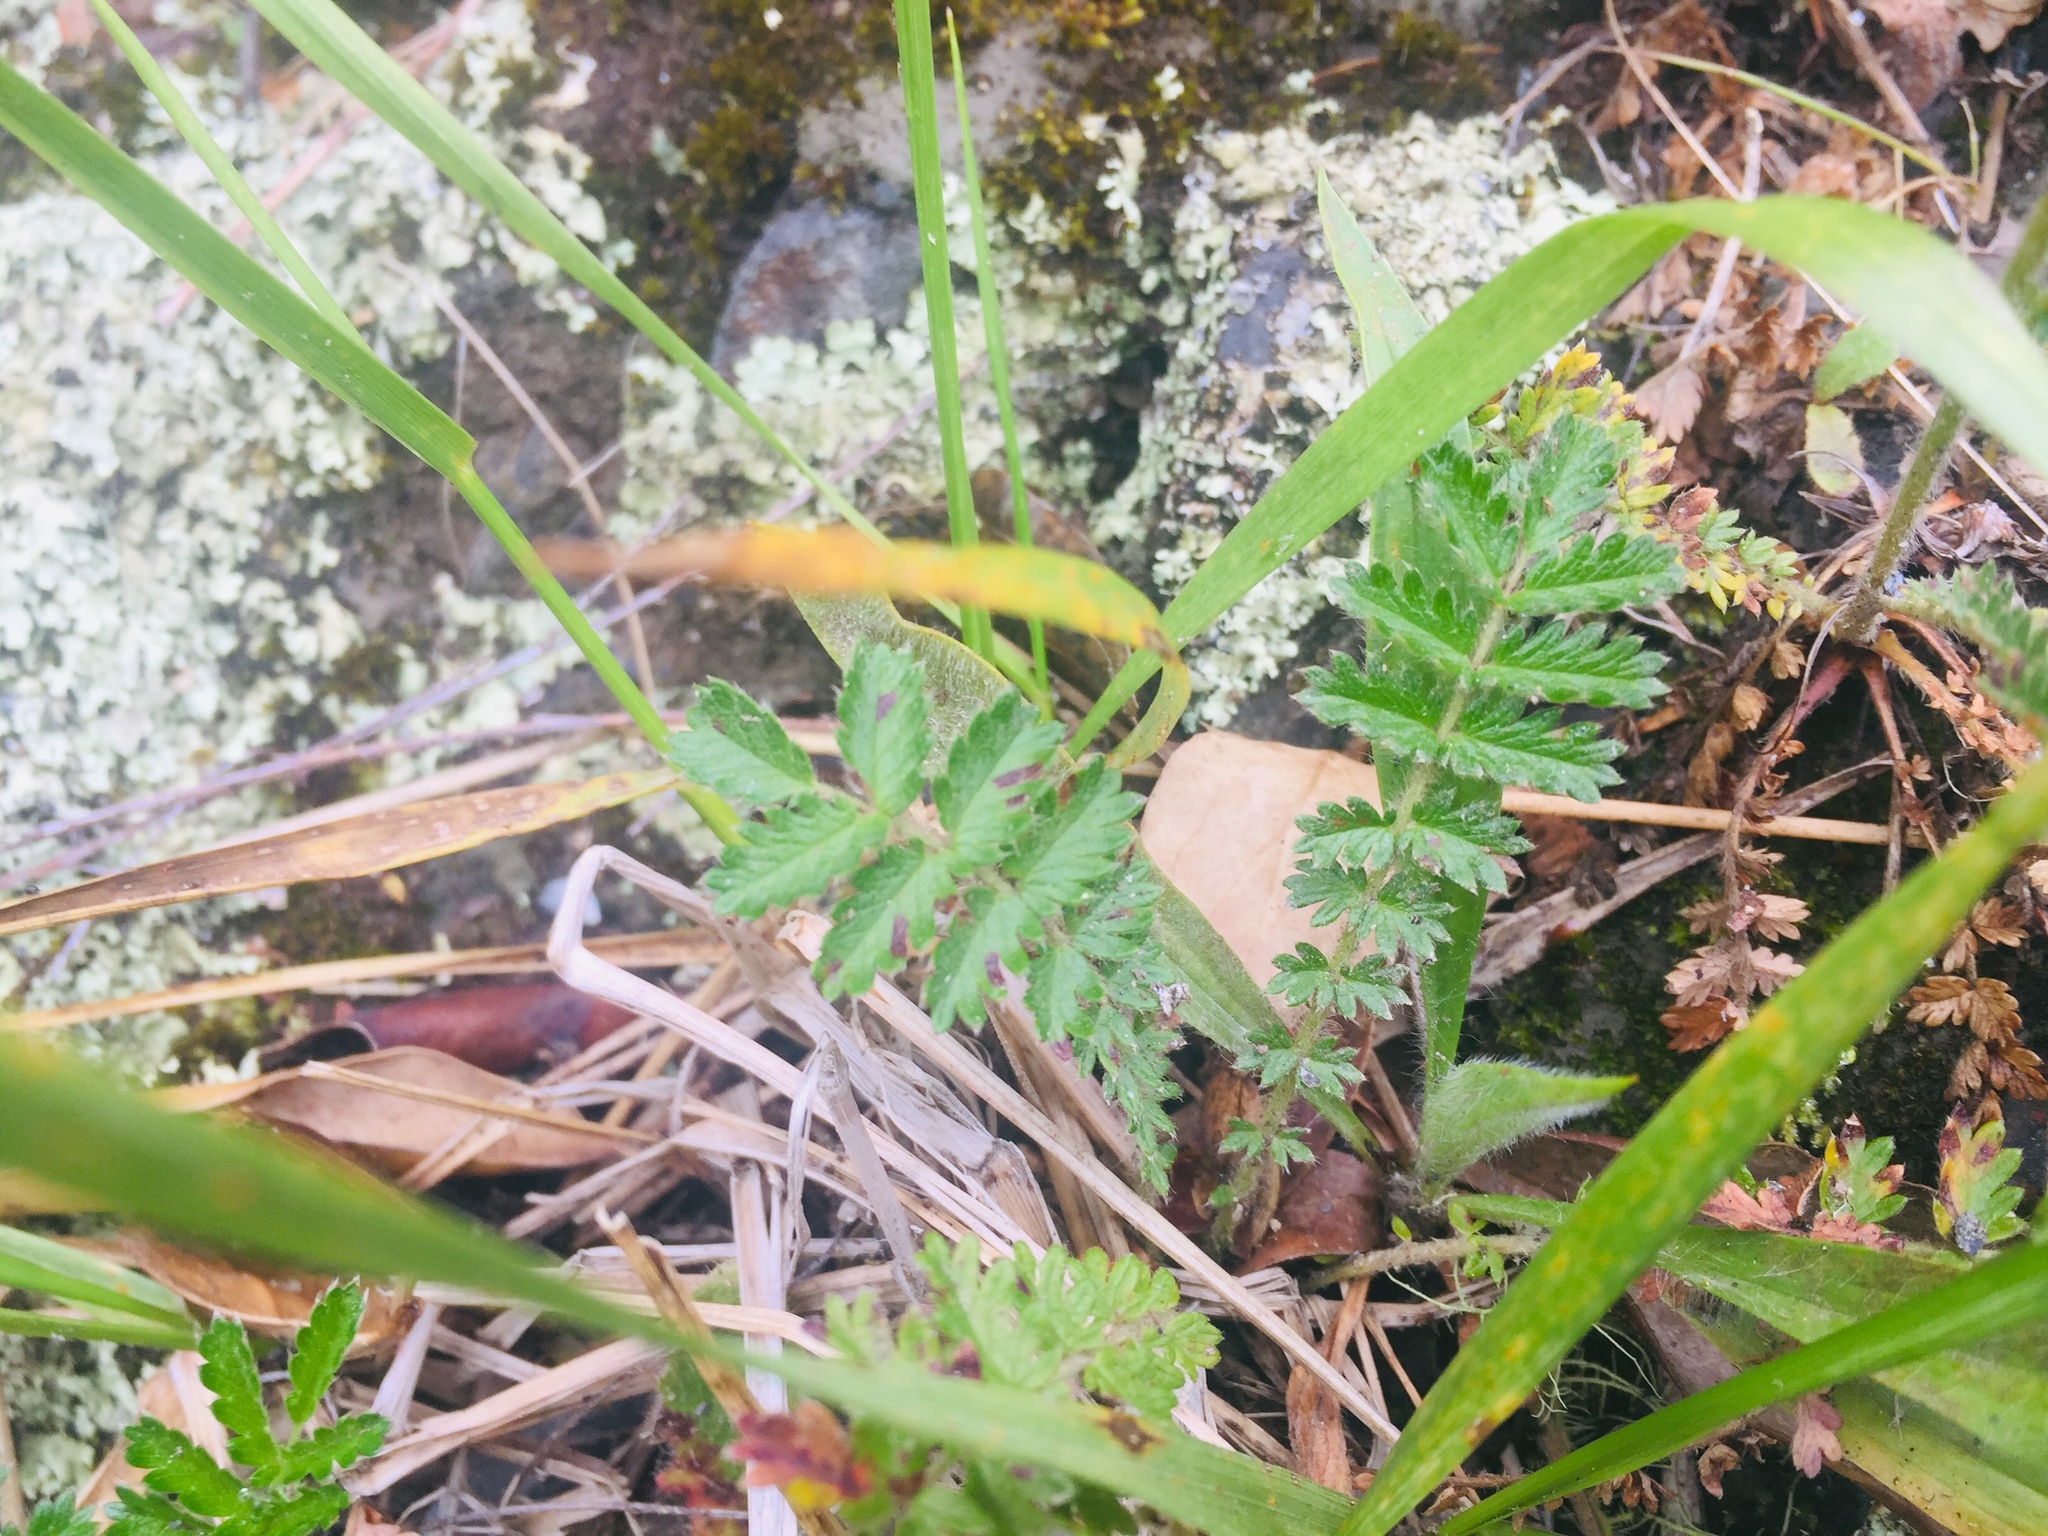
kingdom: Plantae
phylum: Tracheophyta
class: Magnoliopsida
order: Rosales
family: Rosaceae
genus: Acaena
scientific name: Acaena novae-zelandiae
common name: Pirri-pirri-bur
